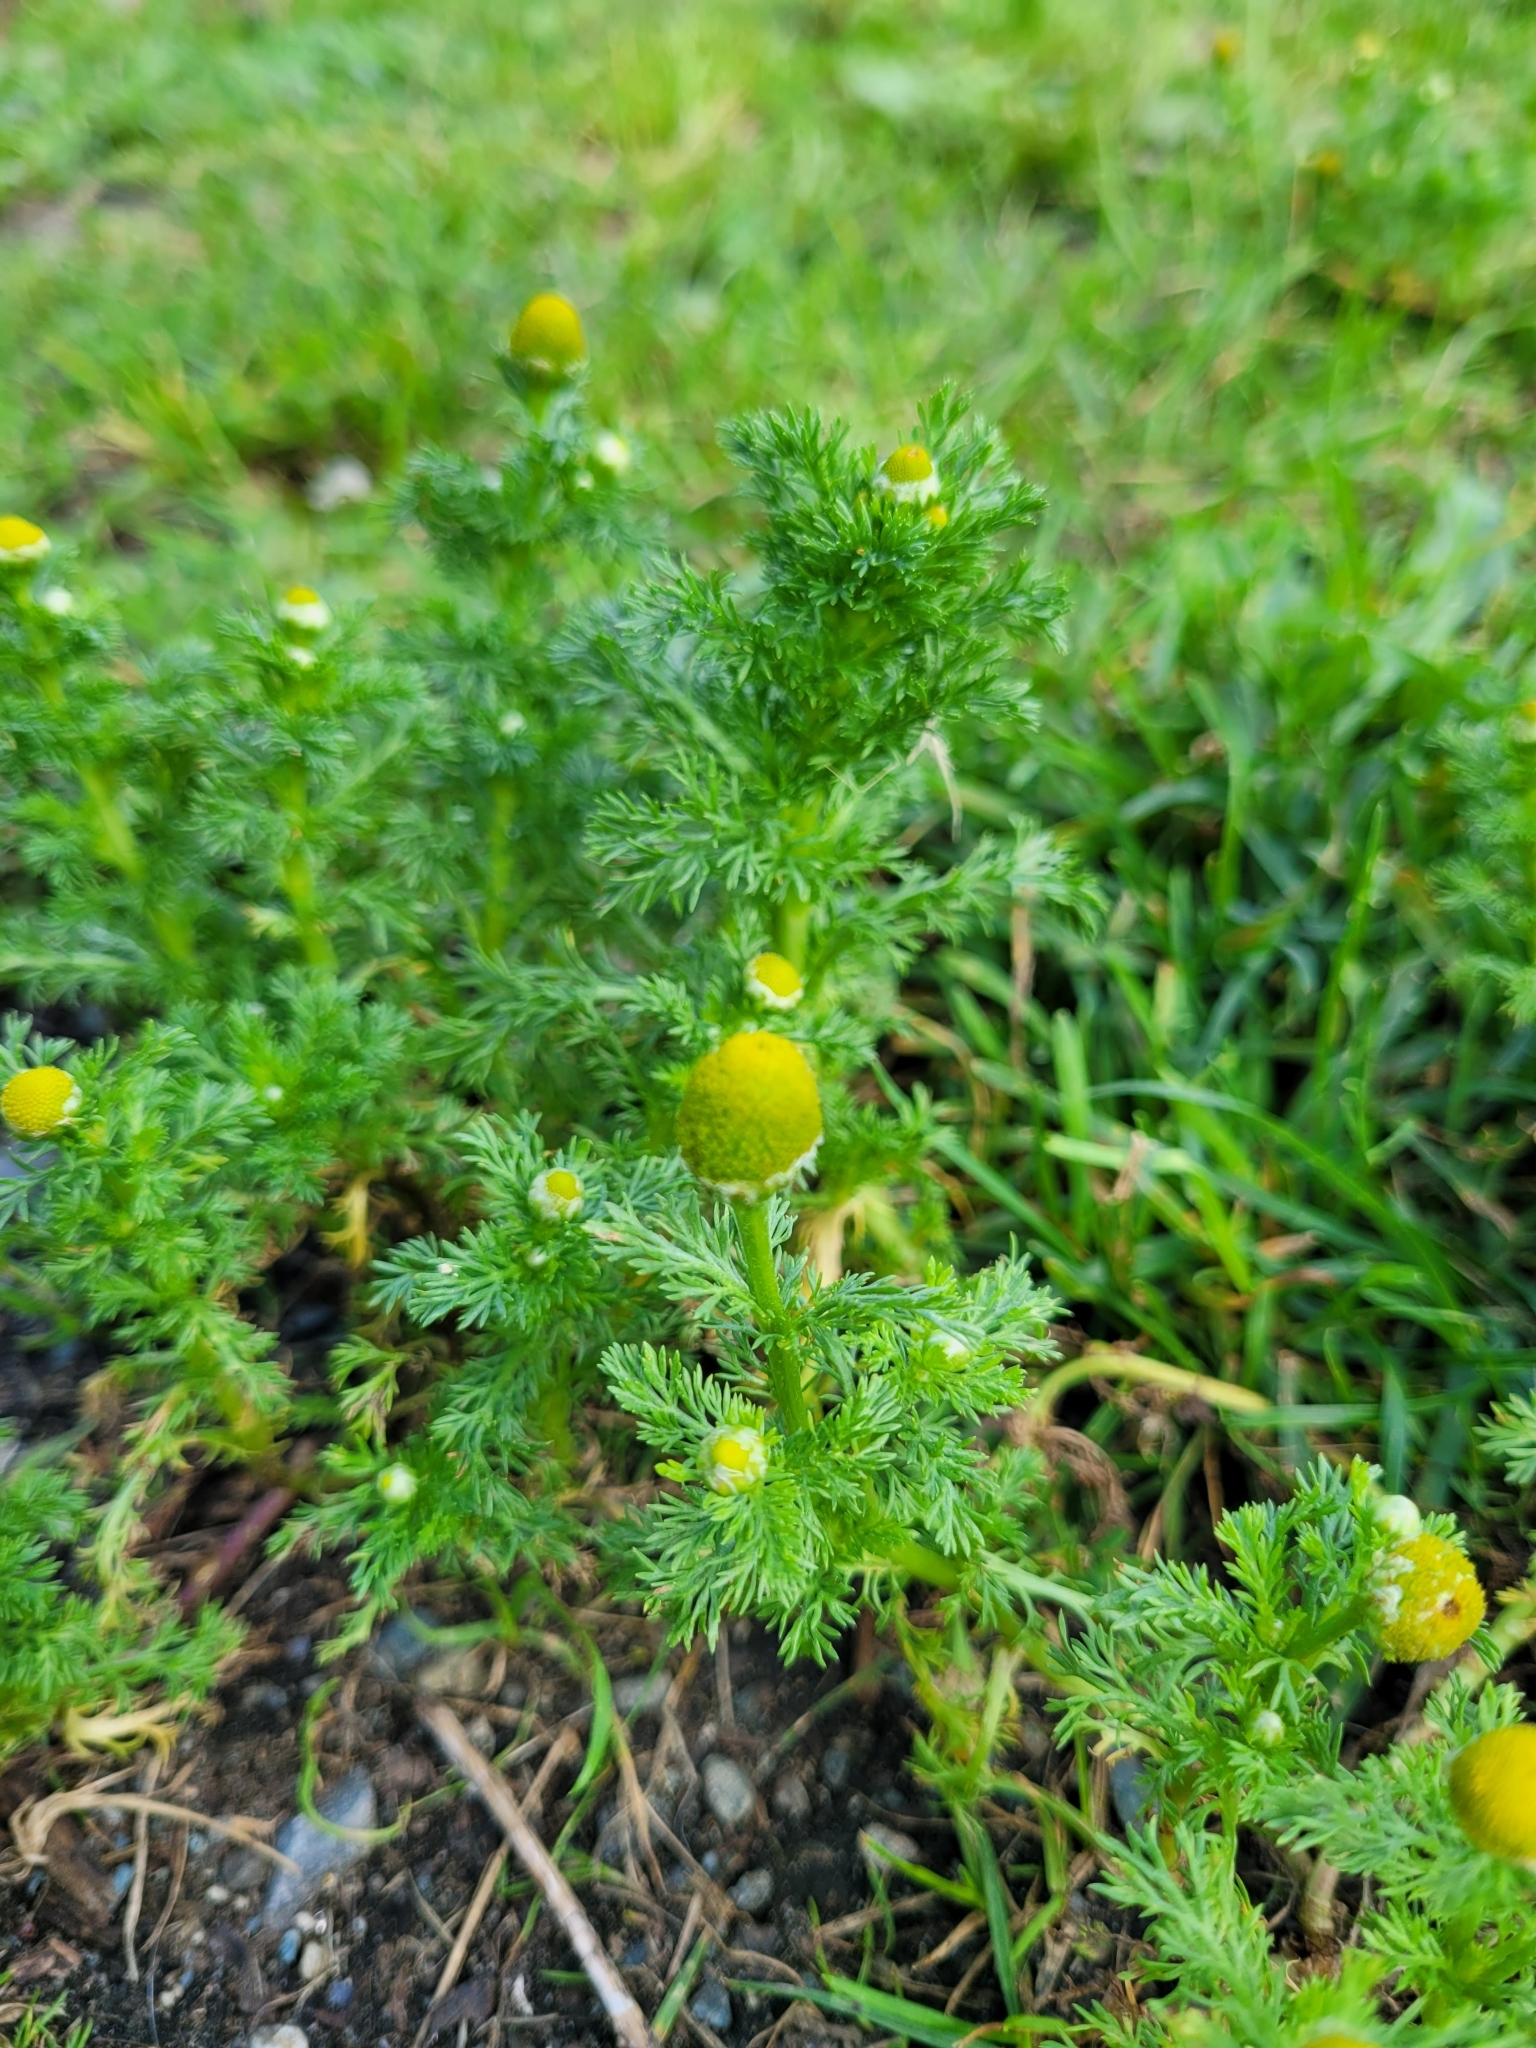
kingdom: Plantae
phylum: Tracheophyta
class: Magnoliopsida
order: Asterales
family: Asteraceae
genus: Matricaria
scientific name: Matricaria discoidea
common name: Disc mayweed
